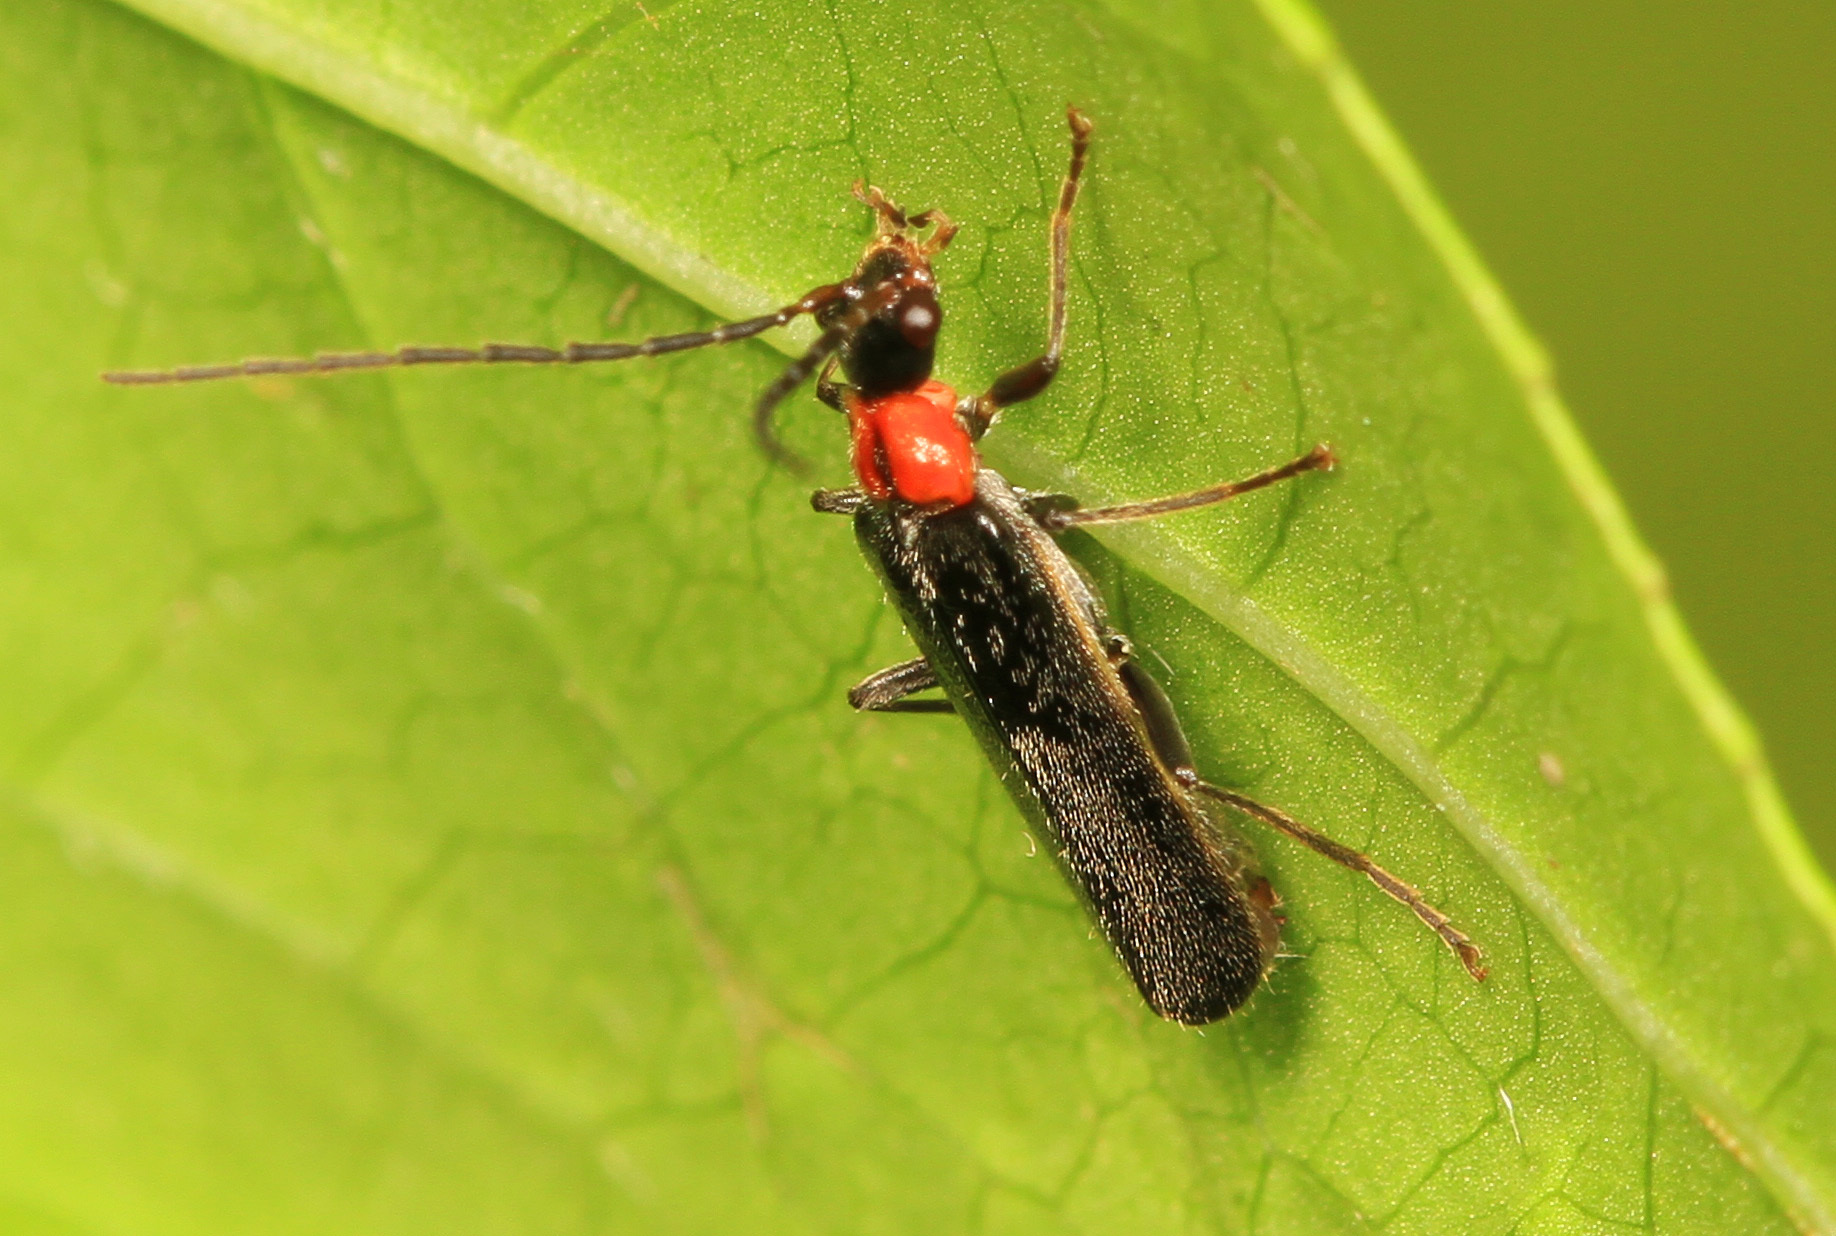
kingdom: Animalia
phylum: Arthropoda
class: Insecta
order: Coleoptera
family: Cantharidae
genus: Rhagonycha
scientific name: Rhagonycha excavata
